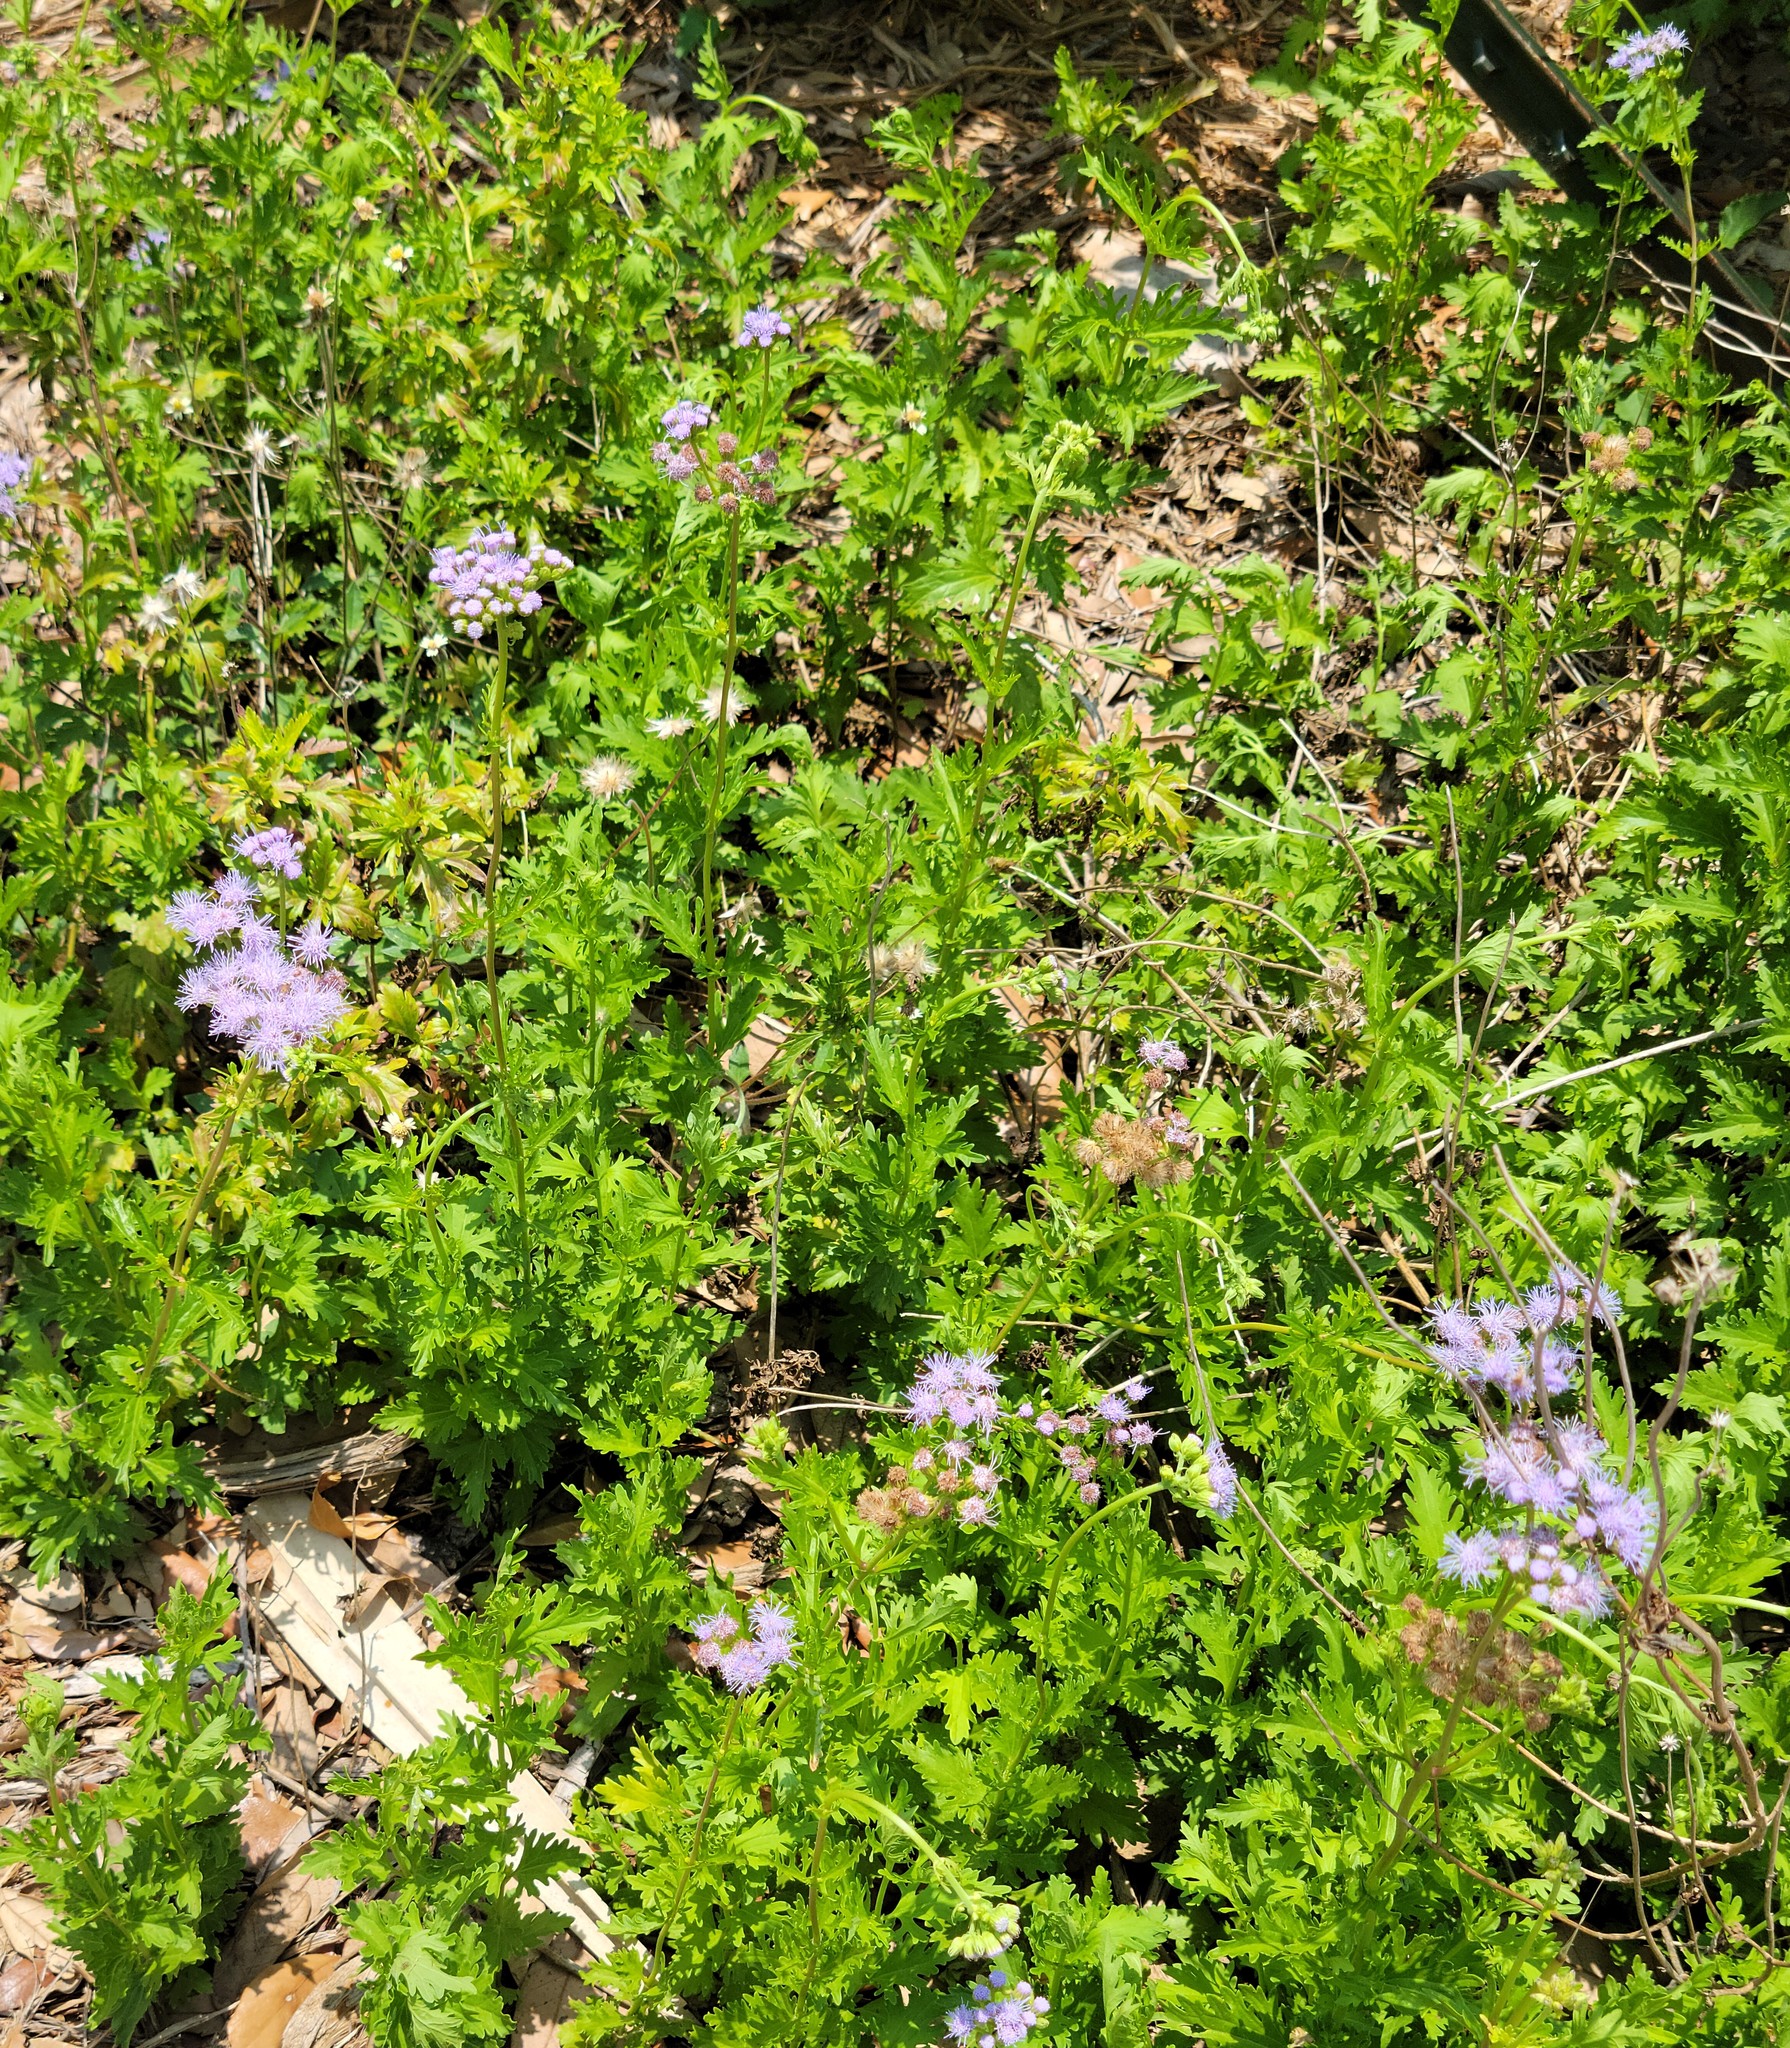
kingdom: Plantae
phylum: Tracheophyta
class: Magnoliopsida
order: Asterales
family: Asteraceae
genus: Conoclinium
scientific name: Conoclinium dissectum
